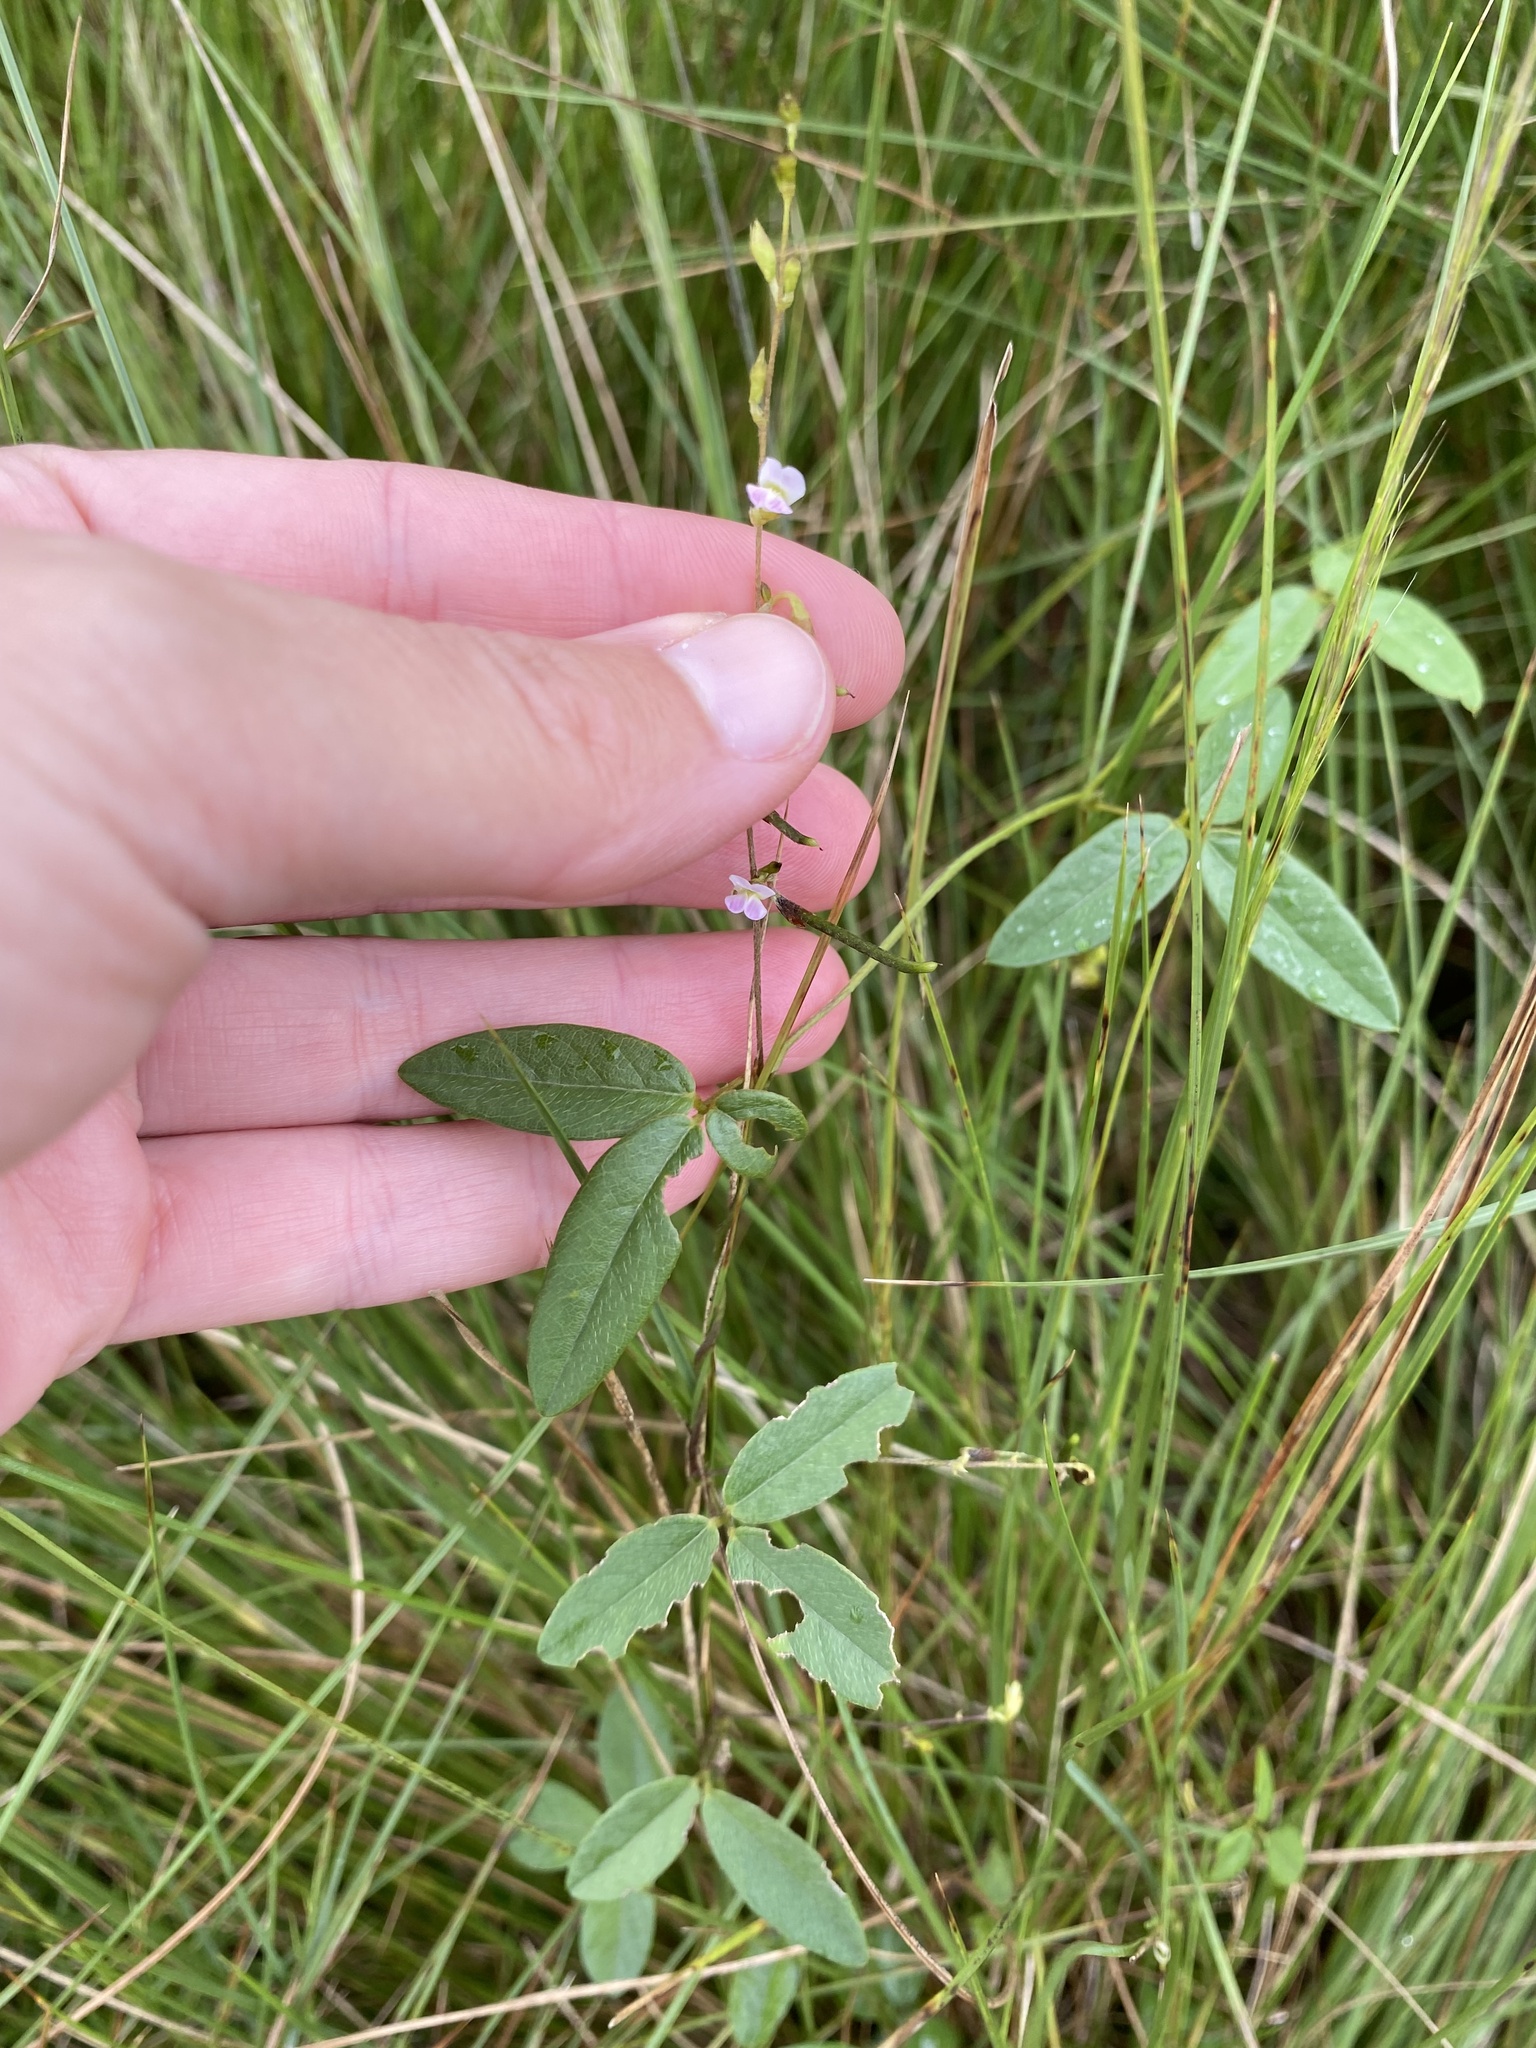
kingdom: Plantae
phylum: Tracheophyta
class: Magnoliopsida
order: Fabales
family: Fabaceae
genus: Vigna
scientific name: Vigna vexillata
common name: Zombi pea
